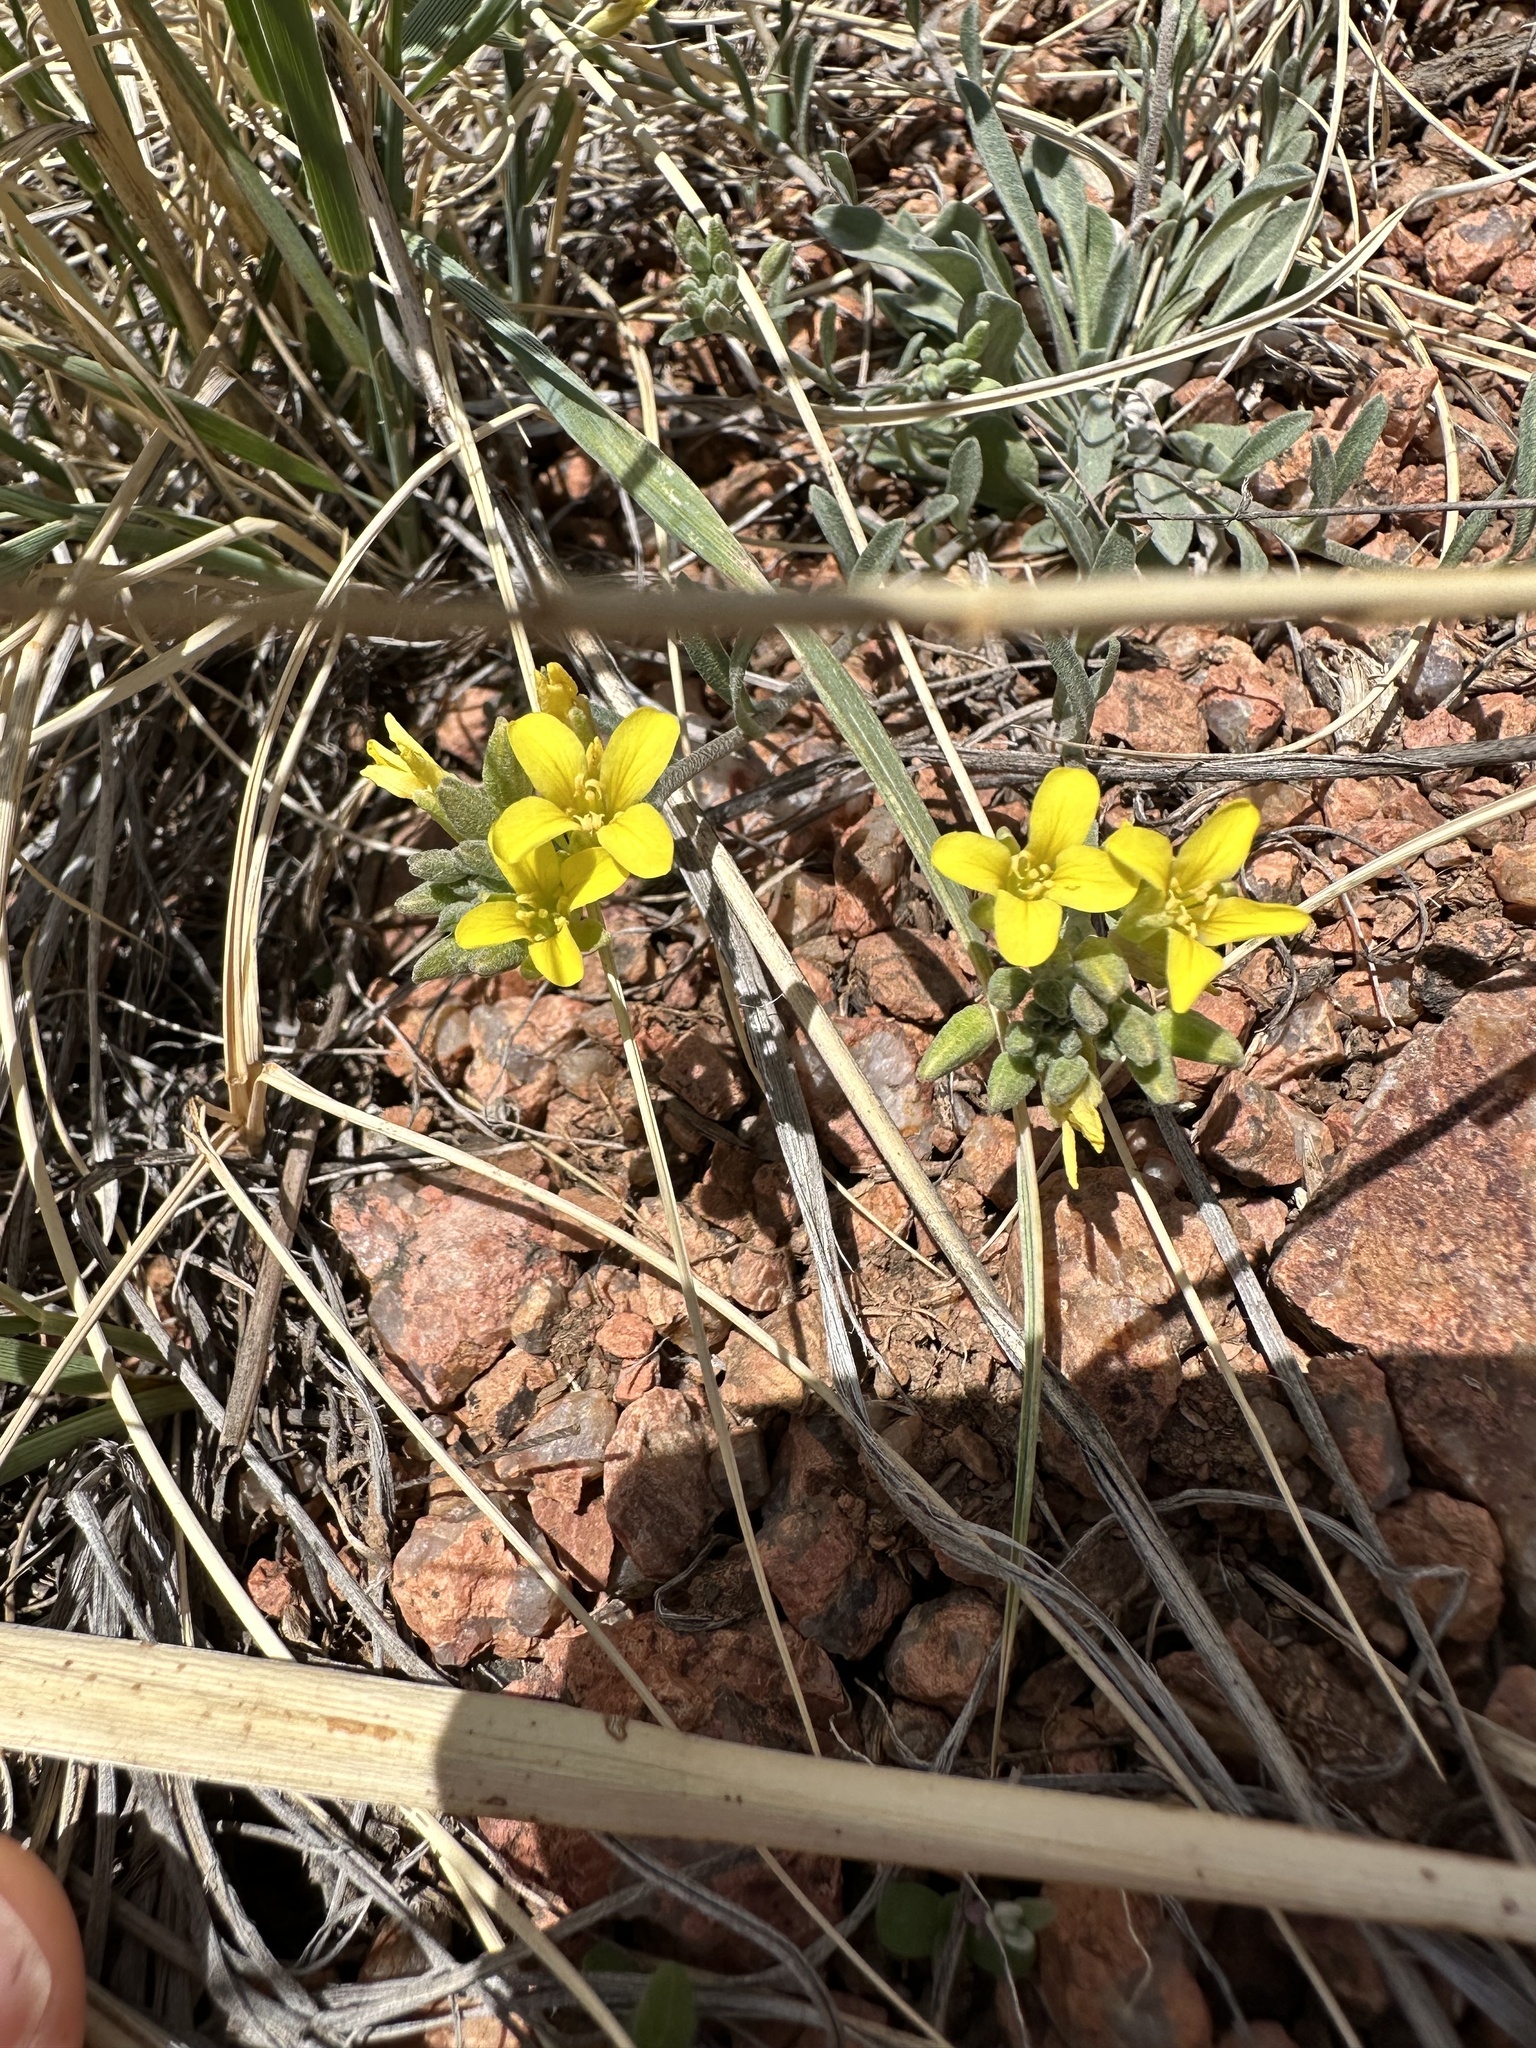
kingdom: Plantae
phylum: Tracheophyta
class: Magnoliopsida
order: Brassicales
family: Brassicaceae
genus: Physaria
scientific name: Physaria montana
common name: Mountain bladderpod
